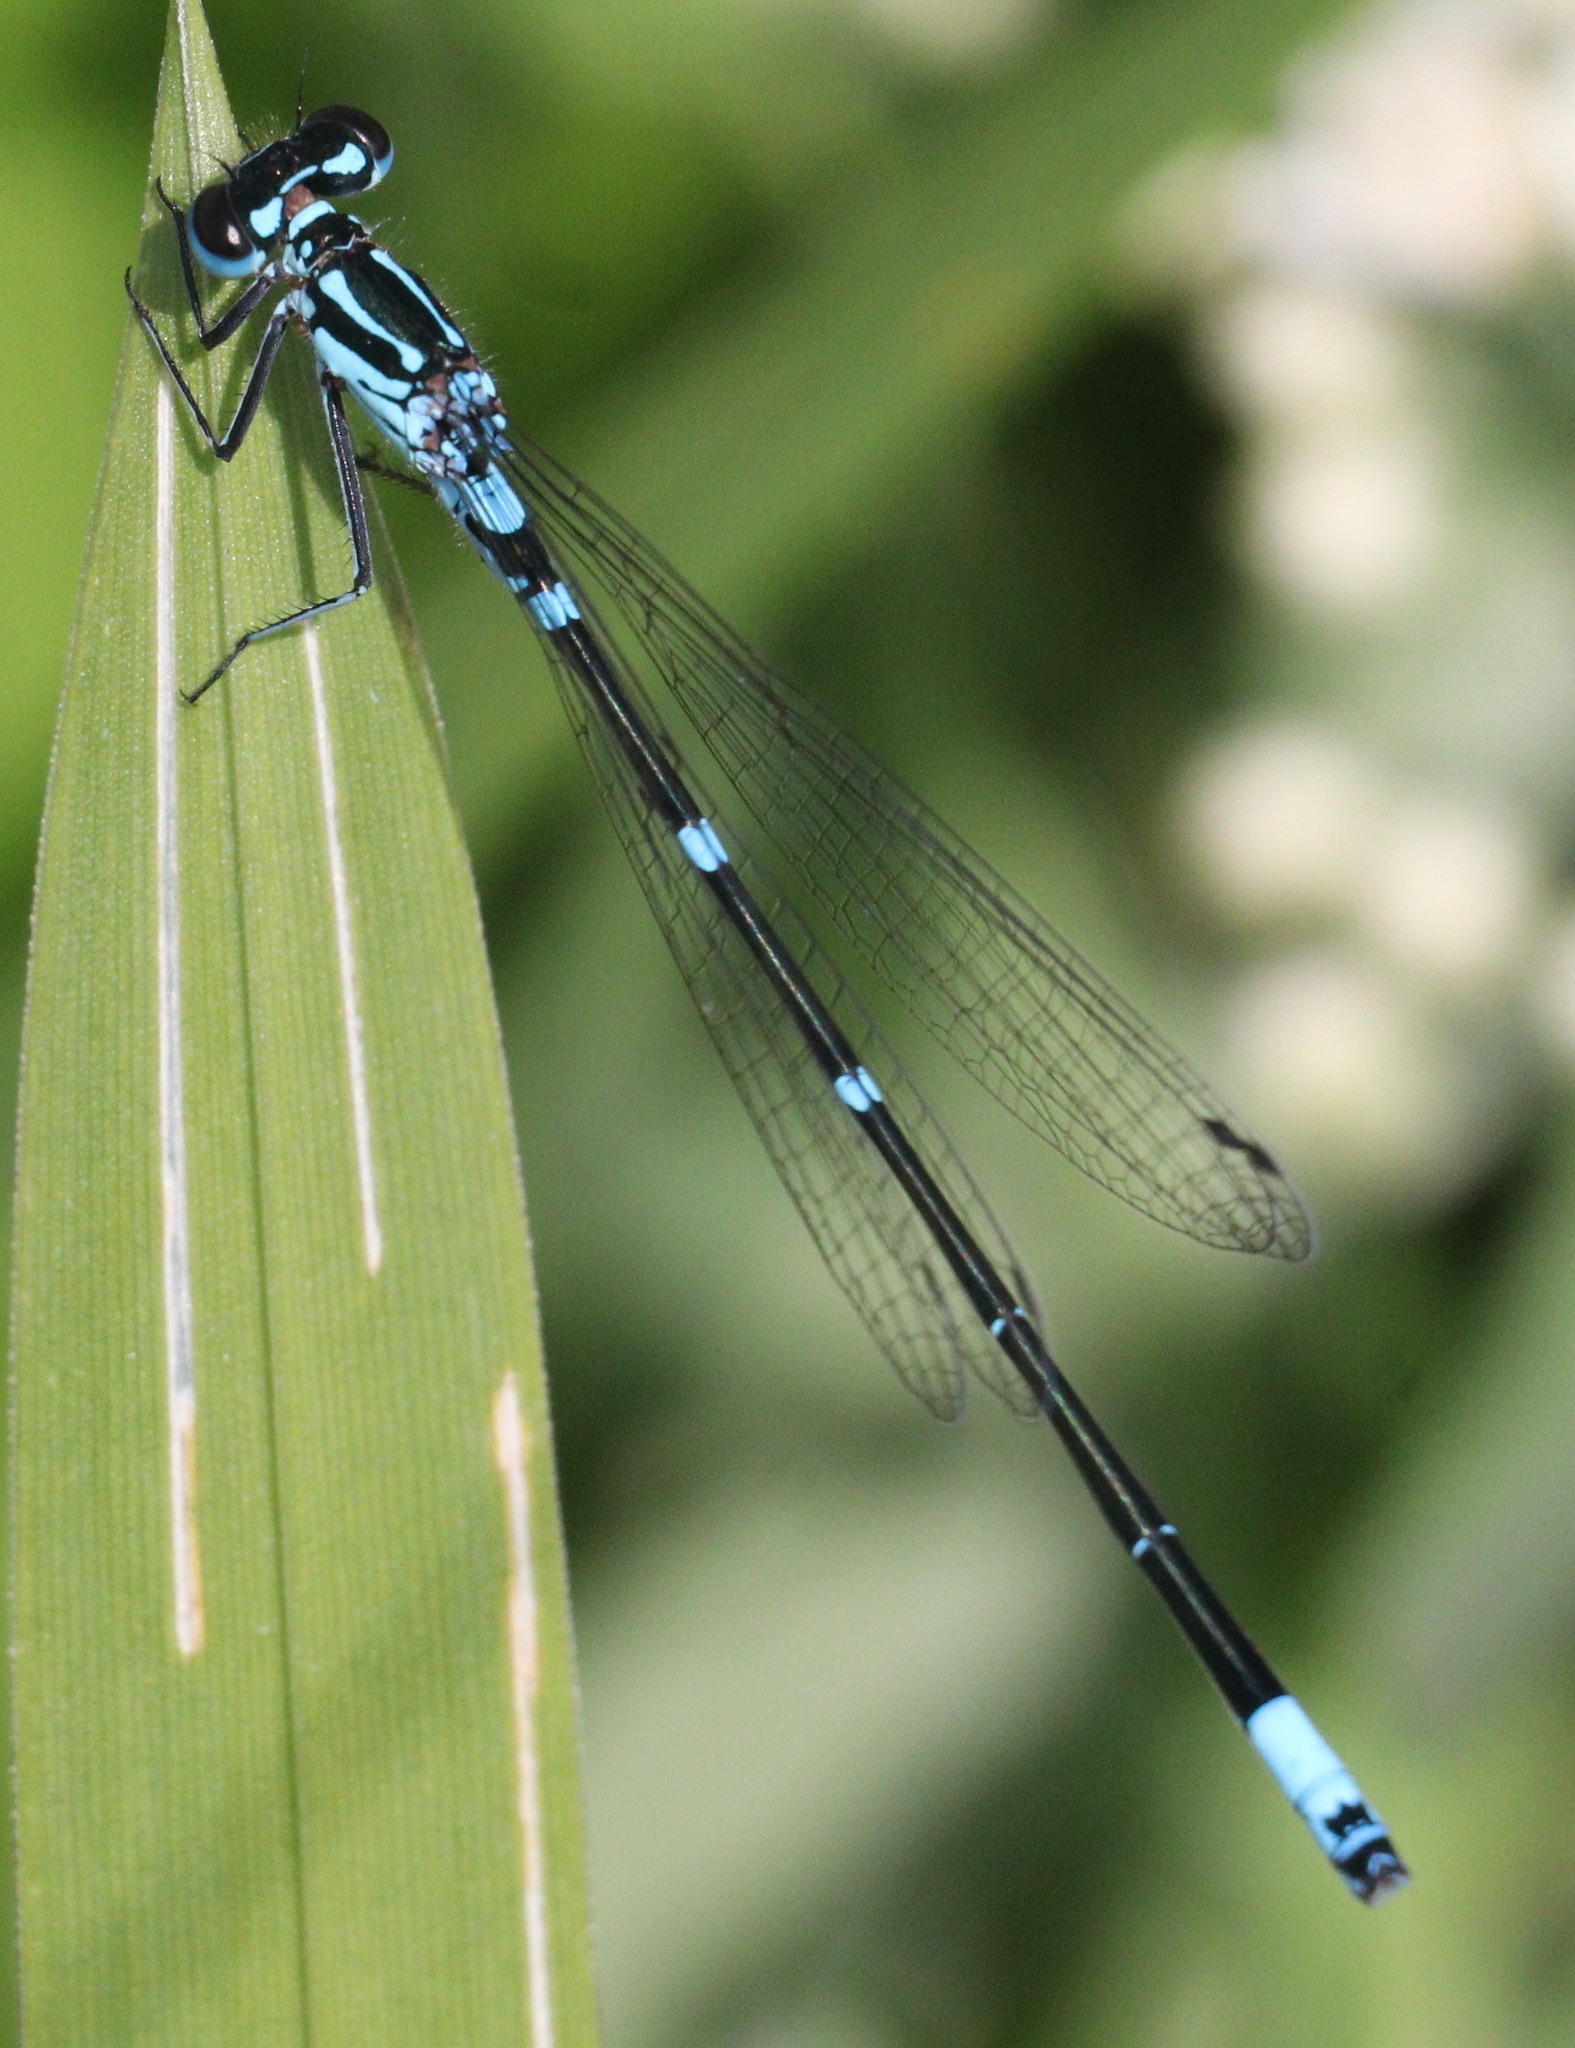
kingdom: Animalia
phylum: Arthropoda
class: Insecta
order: Odonata
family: Coenagrionidae
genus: Coenagrion
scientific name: Coenagrion pulchellum
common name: Variable bluet
